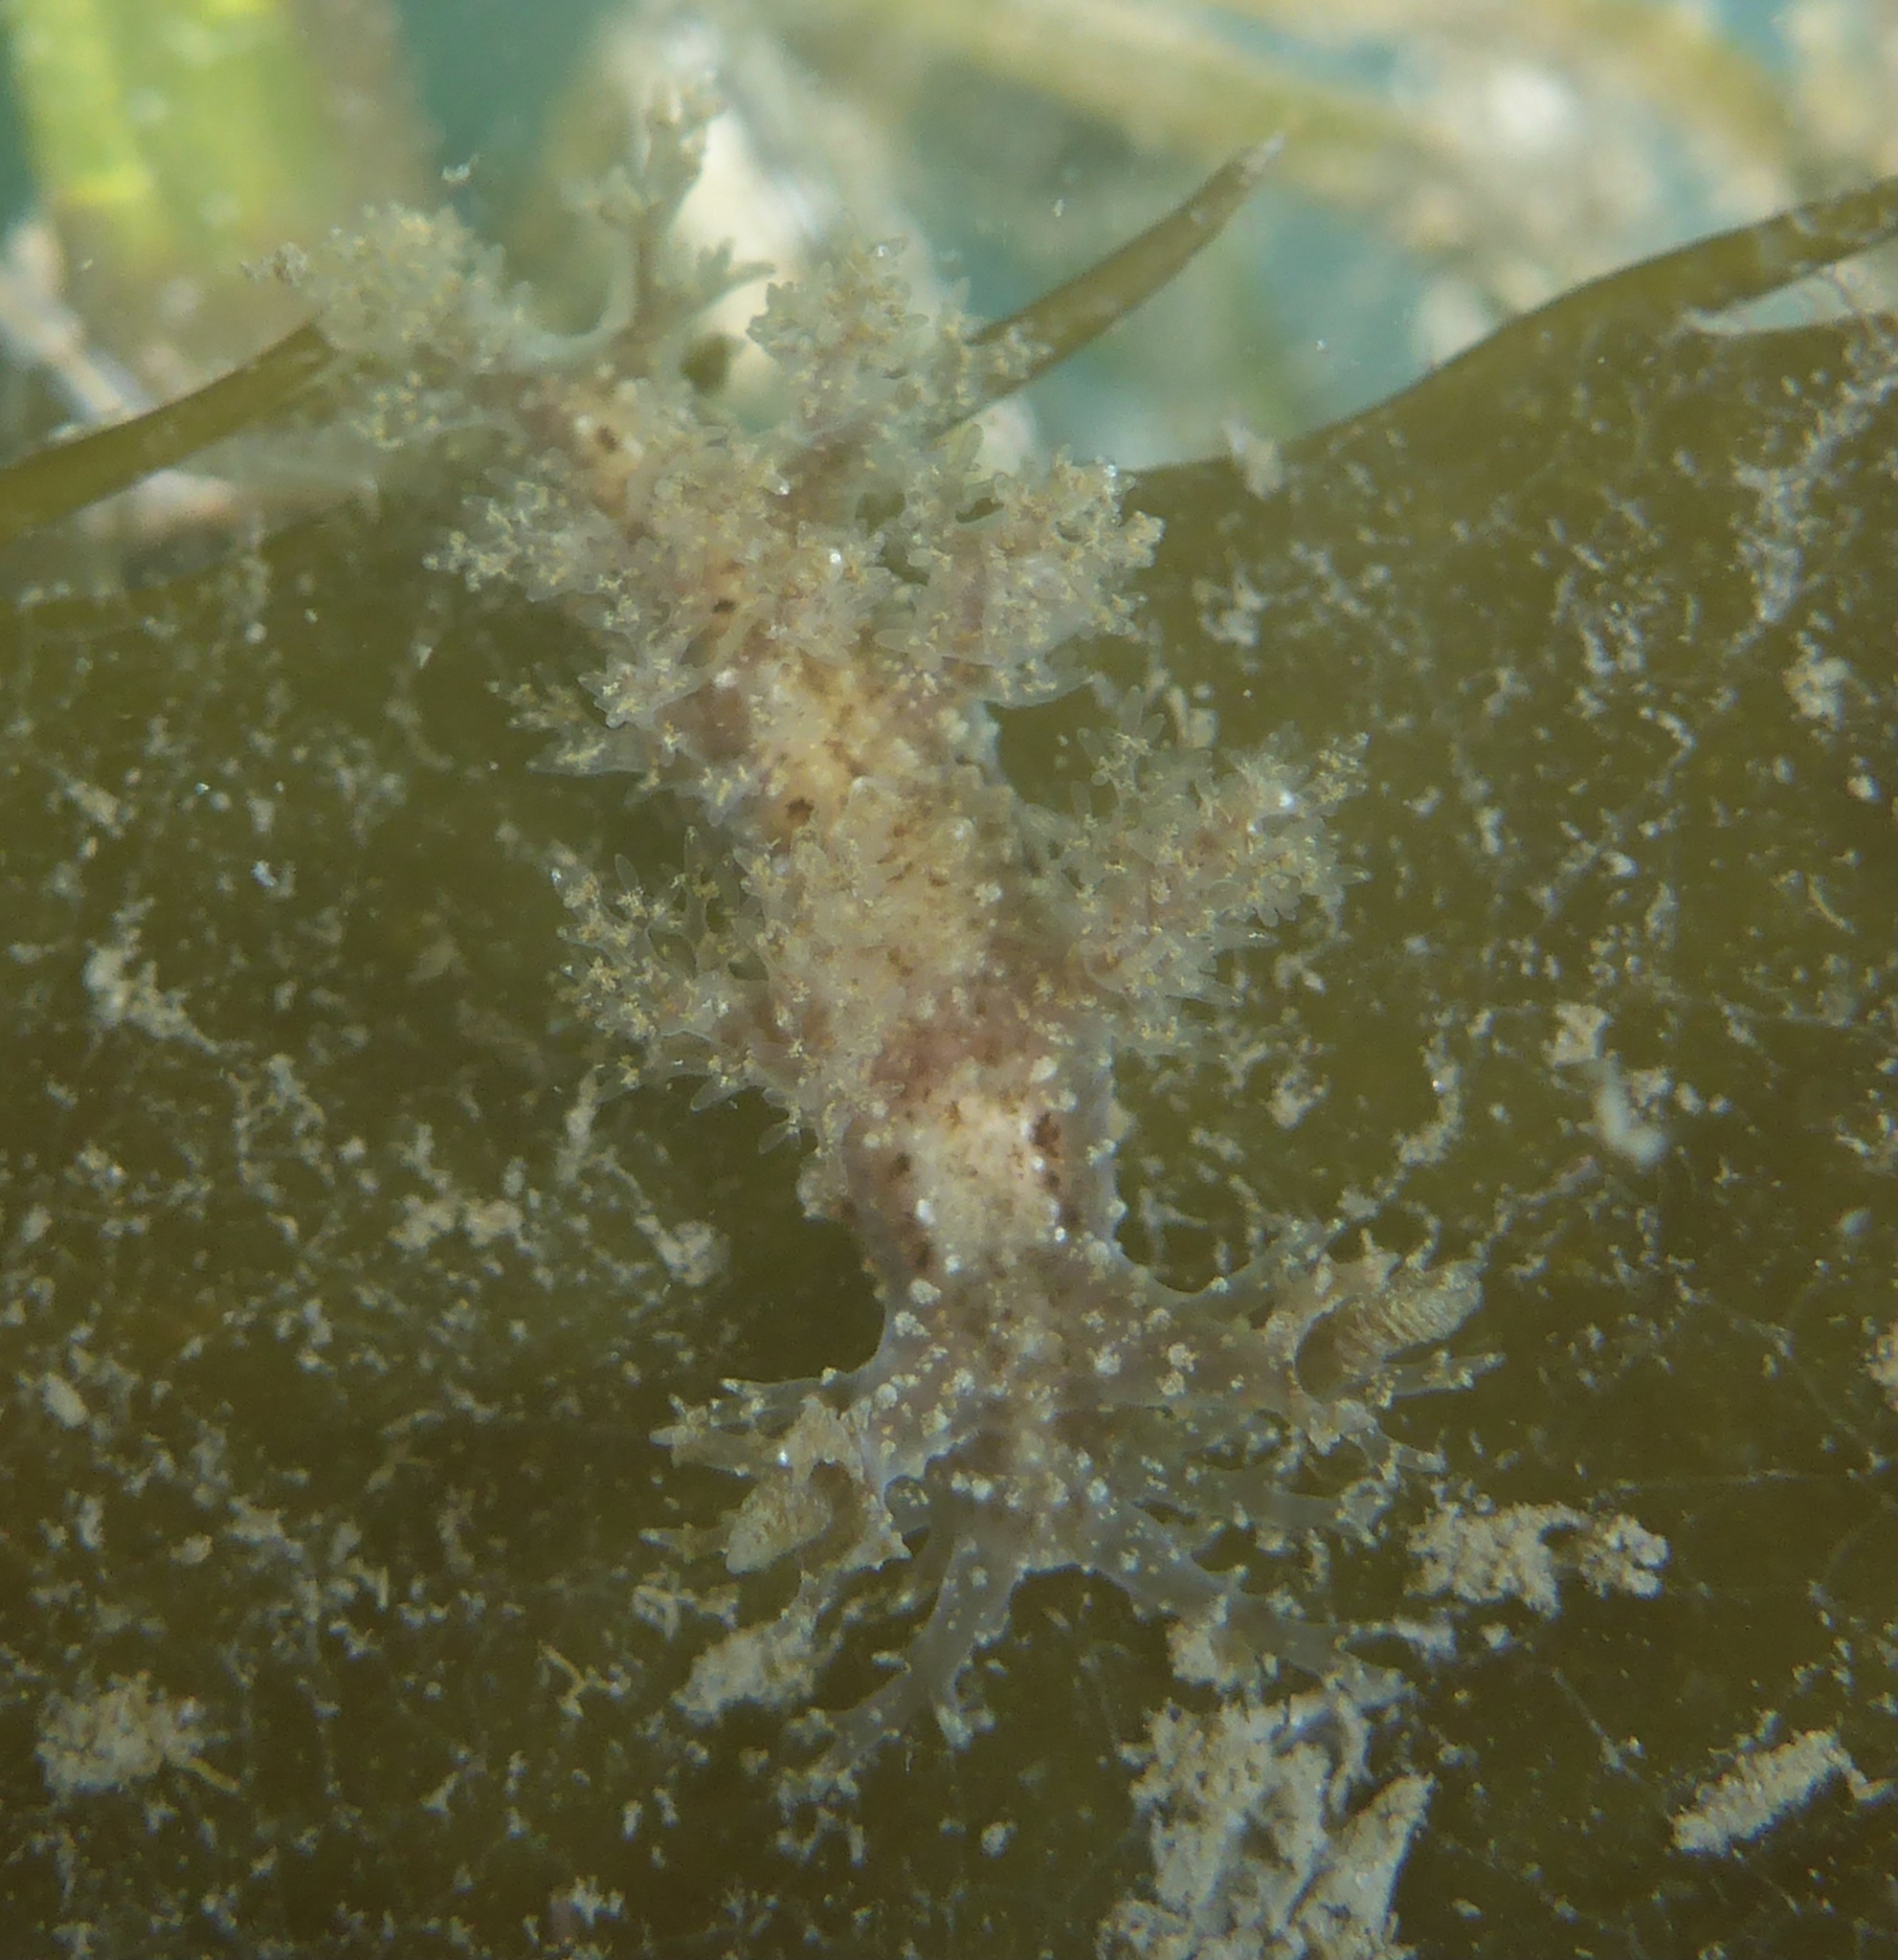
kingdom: Animalia
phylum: Mollusca
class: Gastropoda
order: Nudibranchia
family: Dendronotidae
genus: Dendronotus
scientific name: Dendronotus venustus
